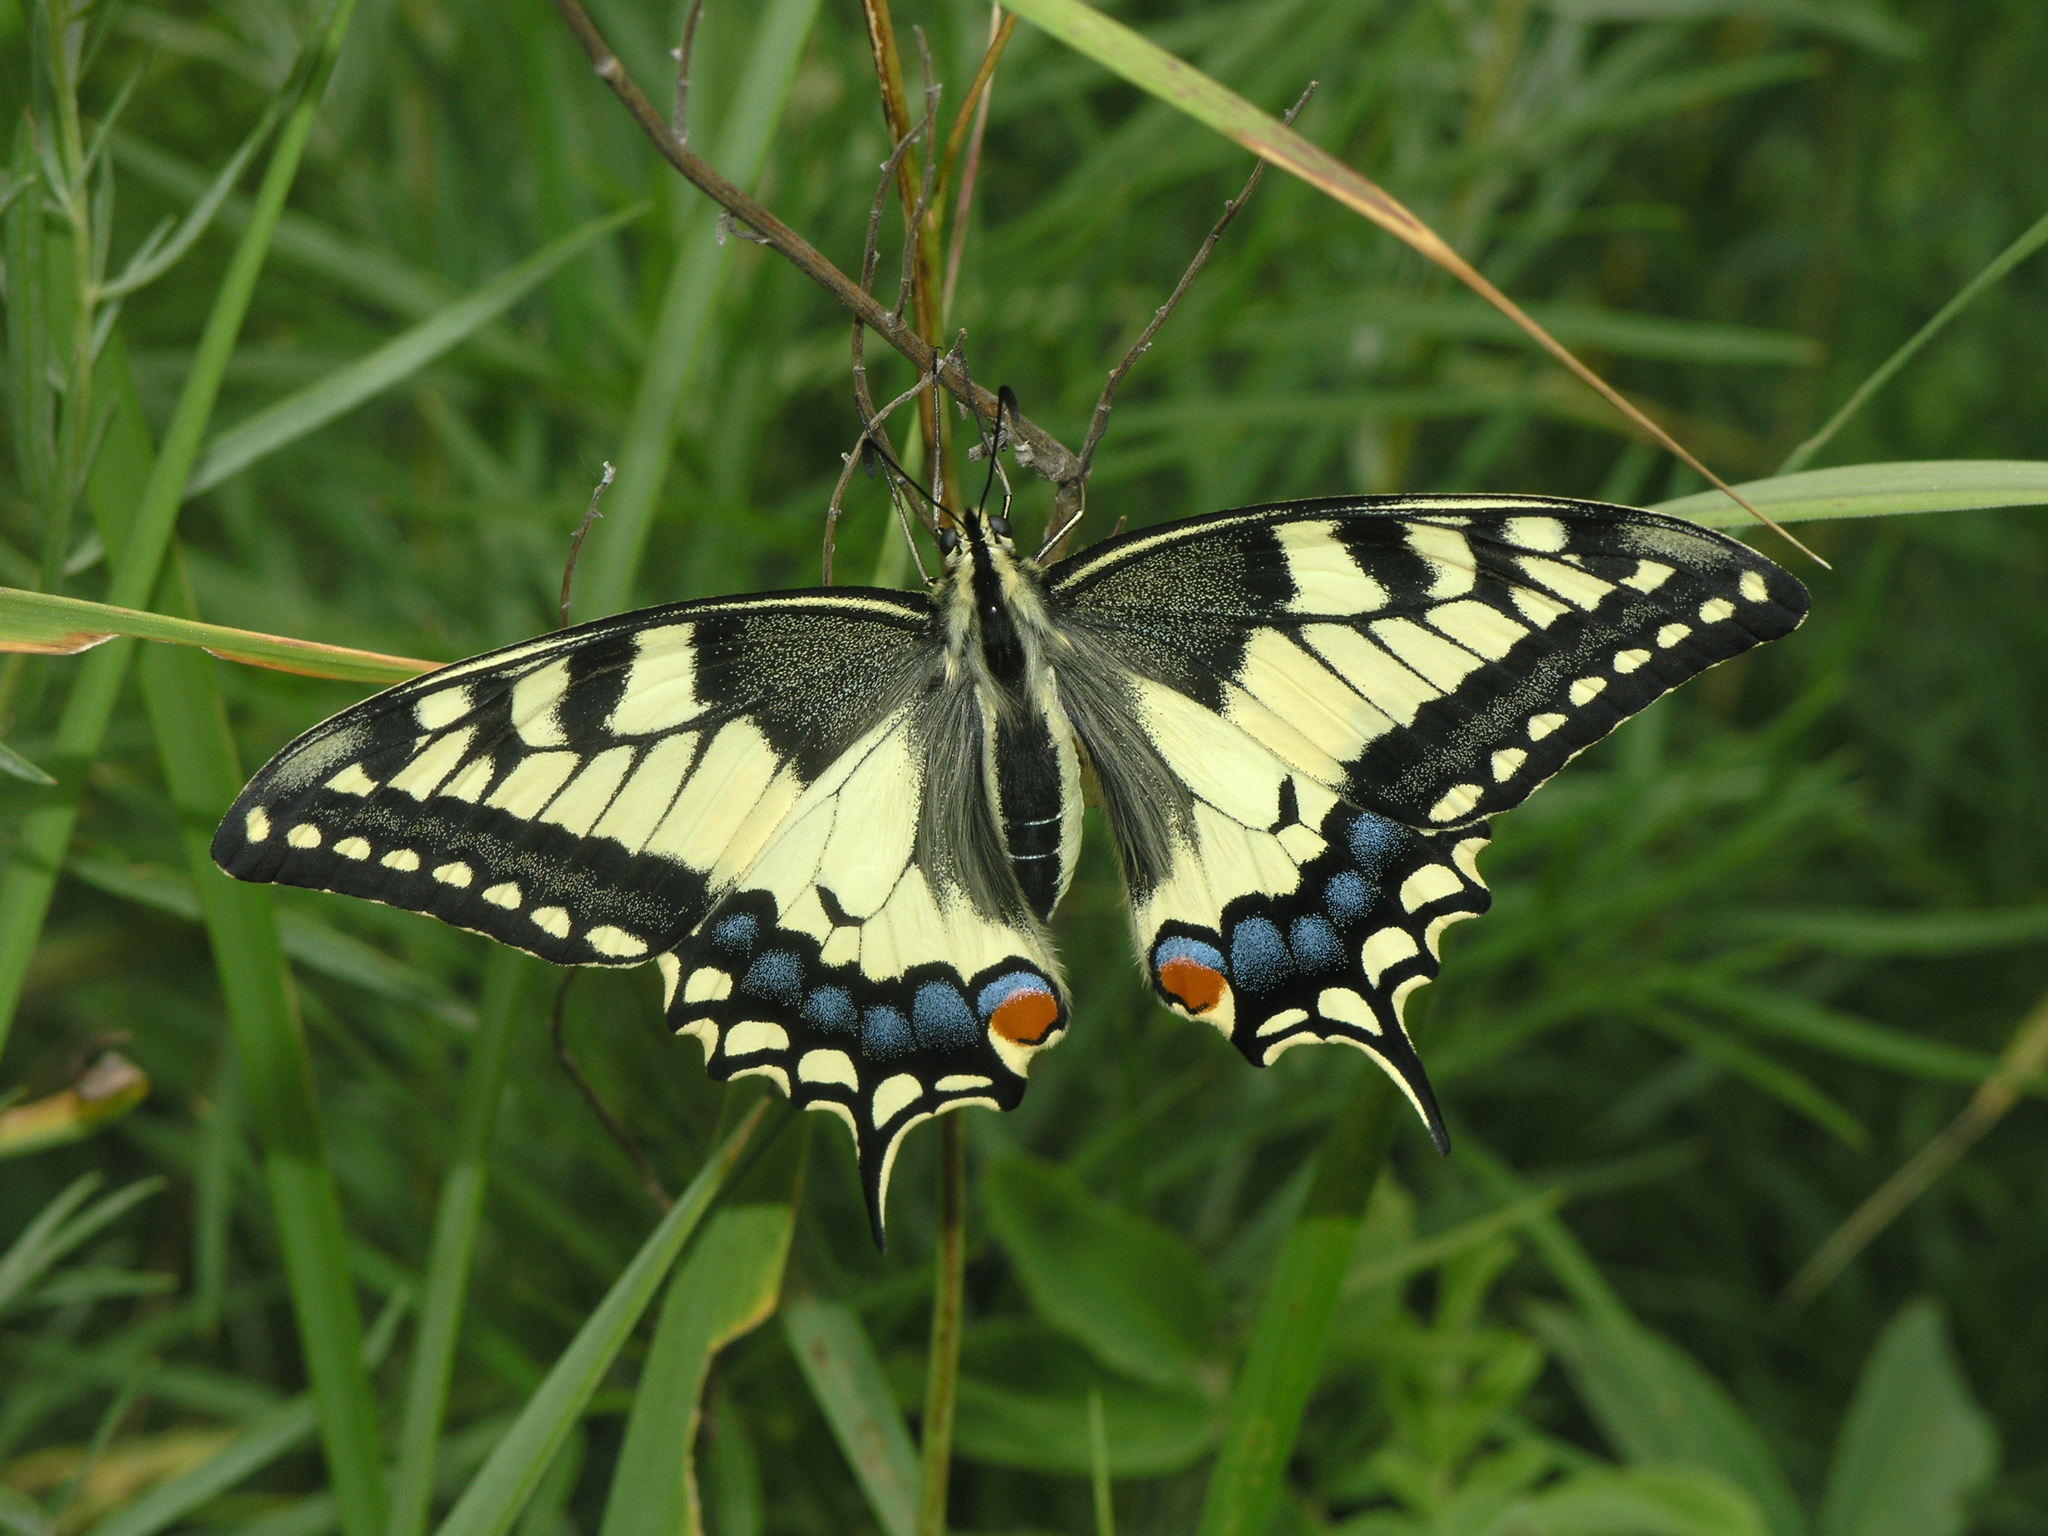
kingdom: Animalia
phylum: Arthropoda
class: Insecta
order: Lepidoptera
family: Papilionidae
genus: Papilio
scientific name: Papilio machaon
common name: Swallowtail
